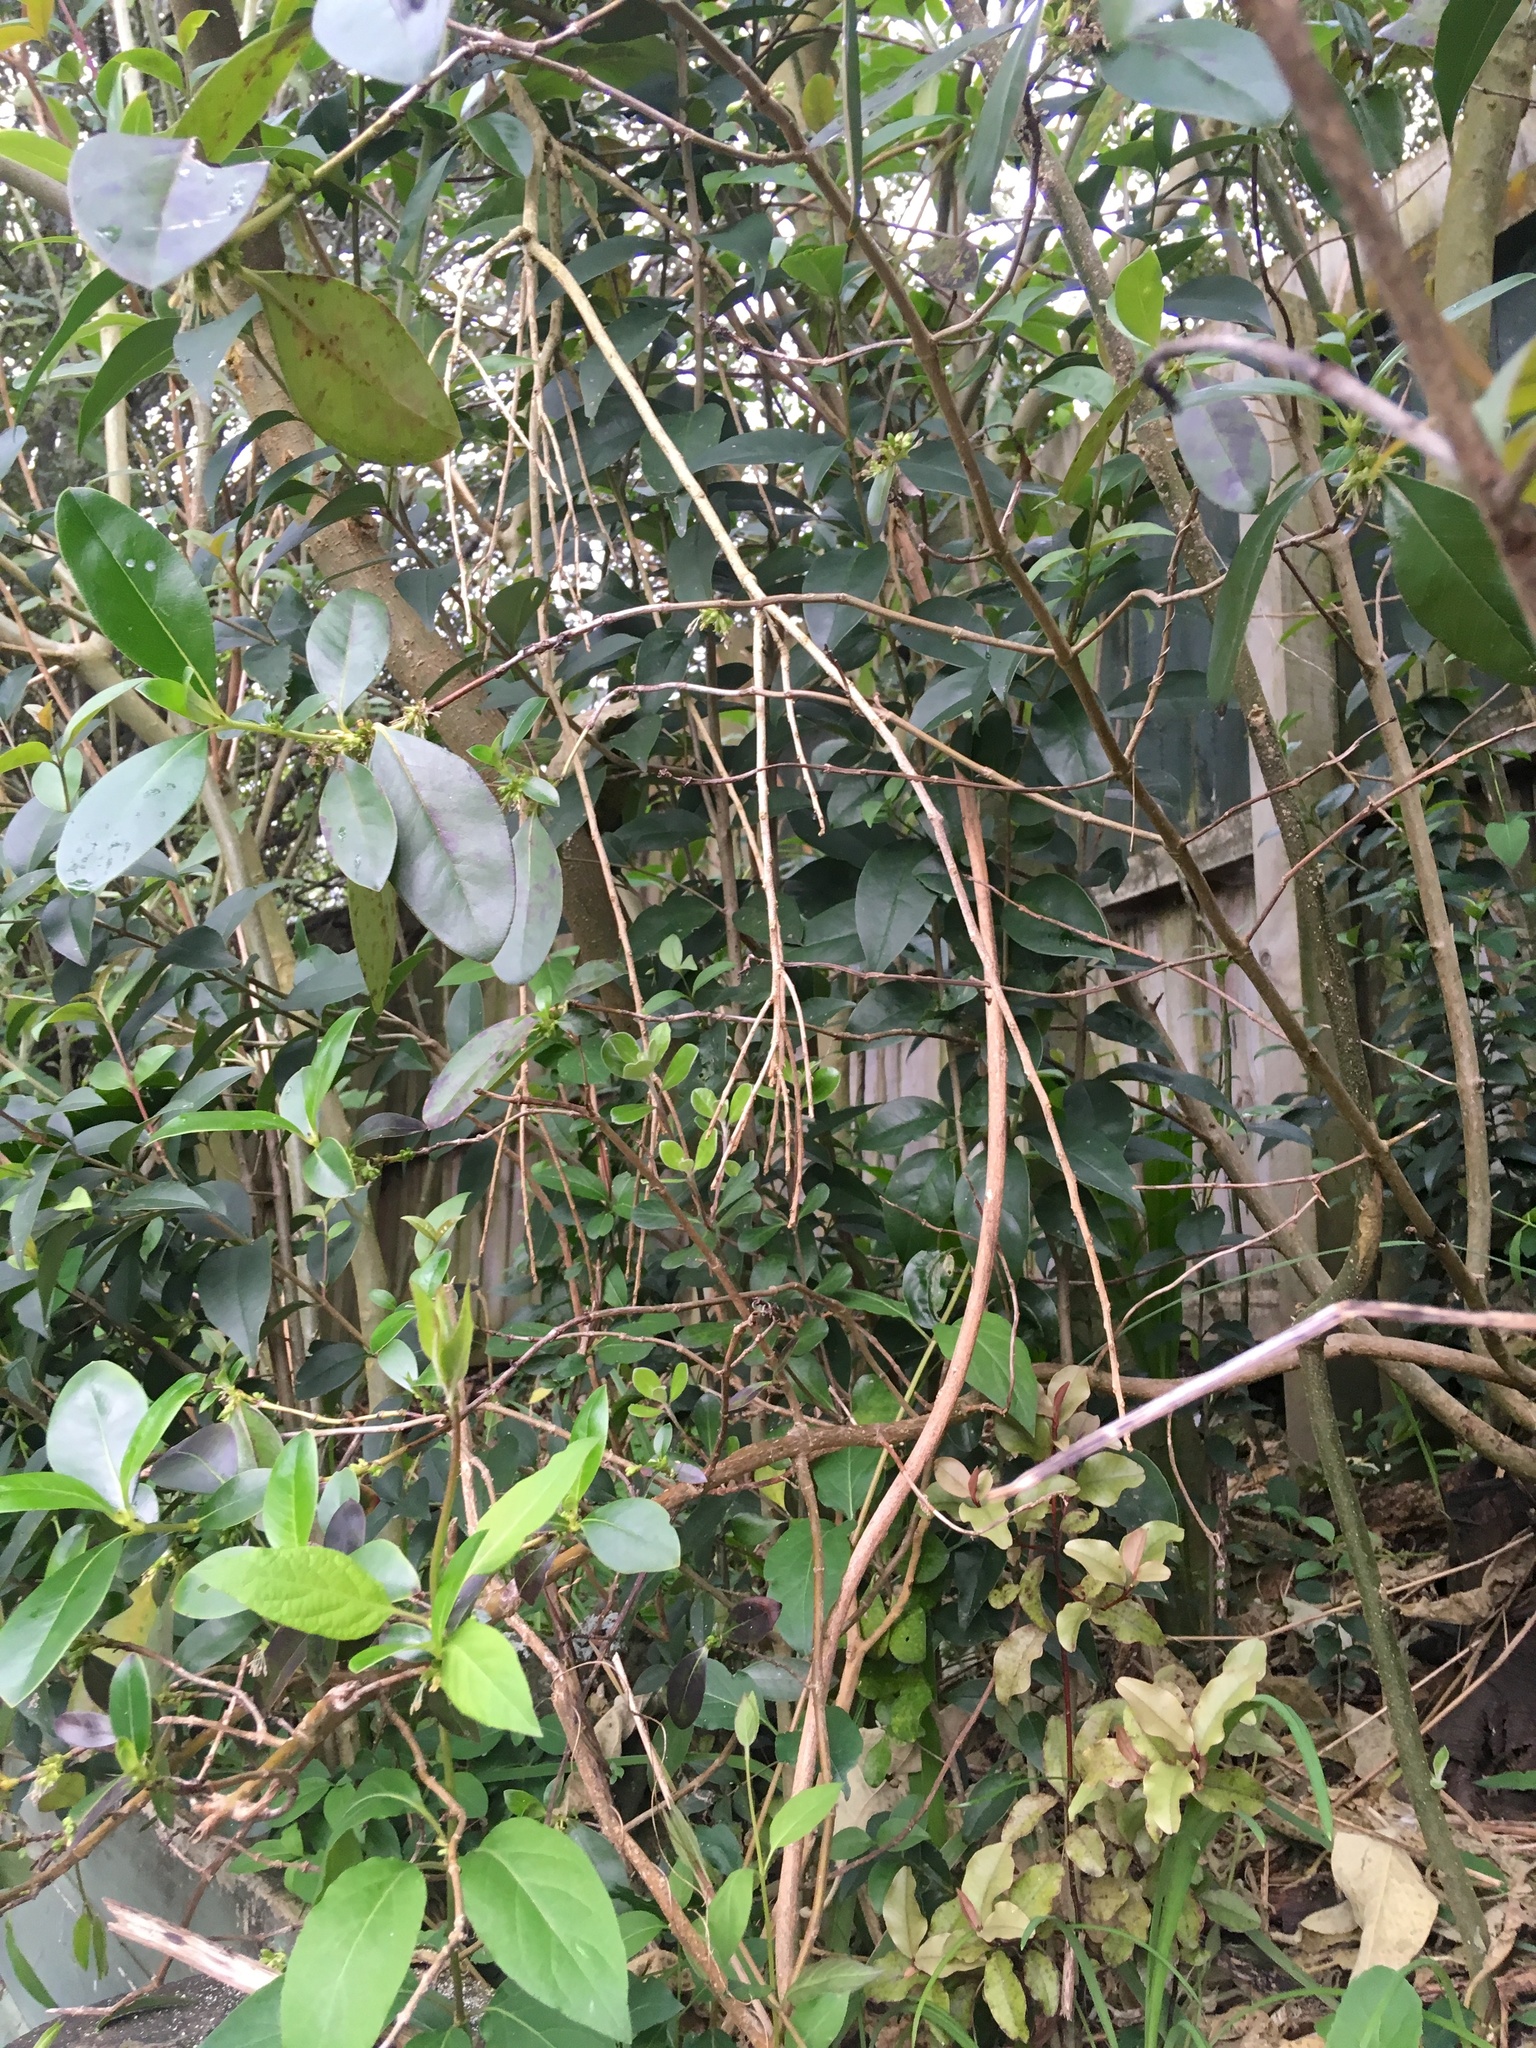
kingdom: Plantae
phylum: Tracheophyta
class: Magnoliopsida
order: Lamiales
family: Oleaceae
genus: Ligustrum
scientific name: Ligustrum lucidum
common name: Glossy privet
